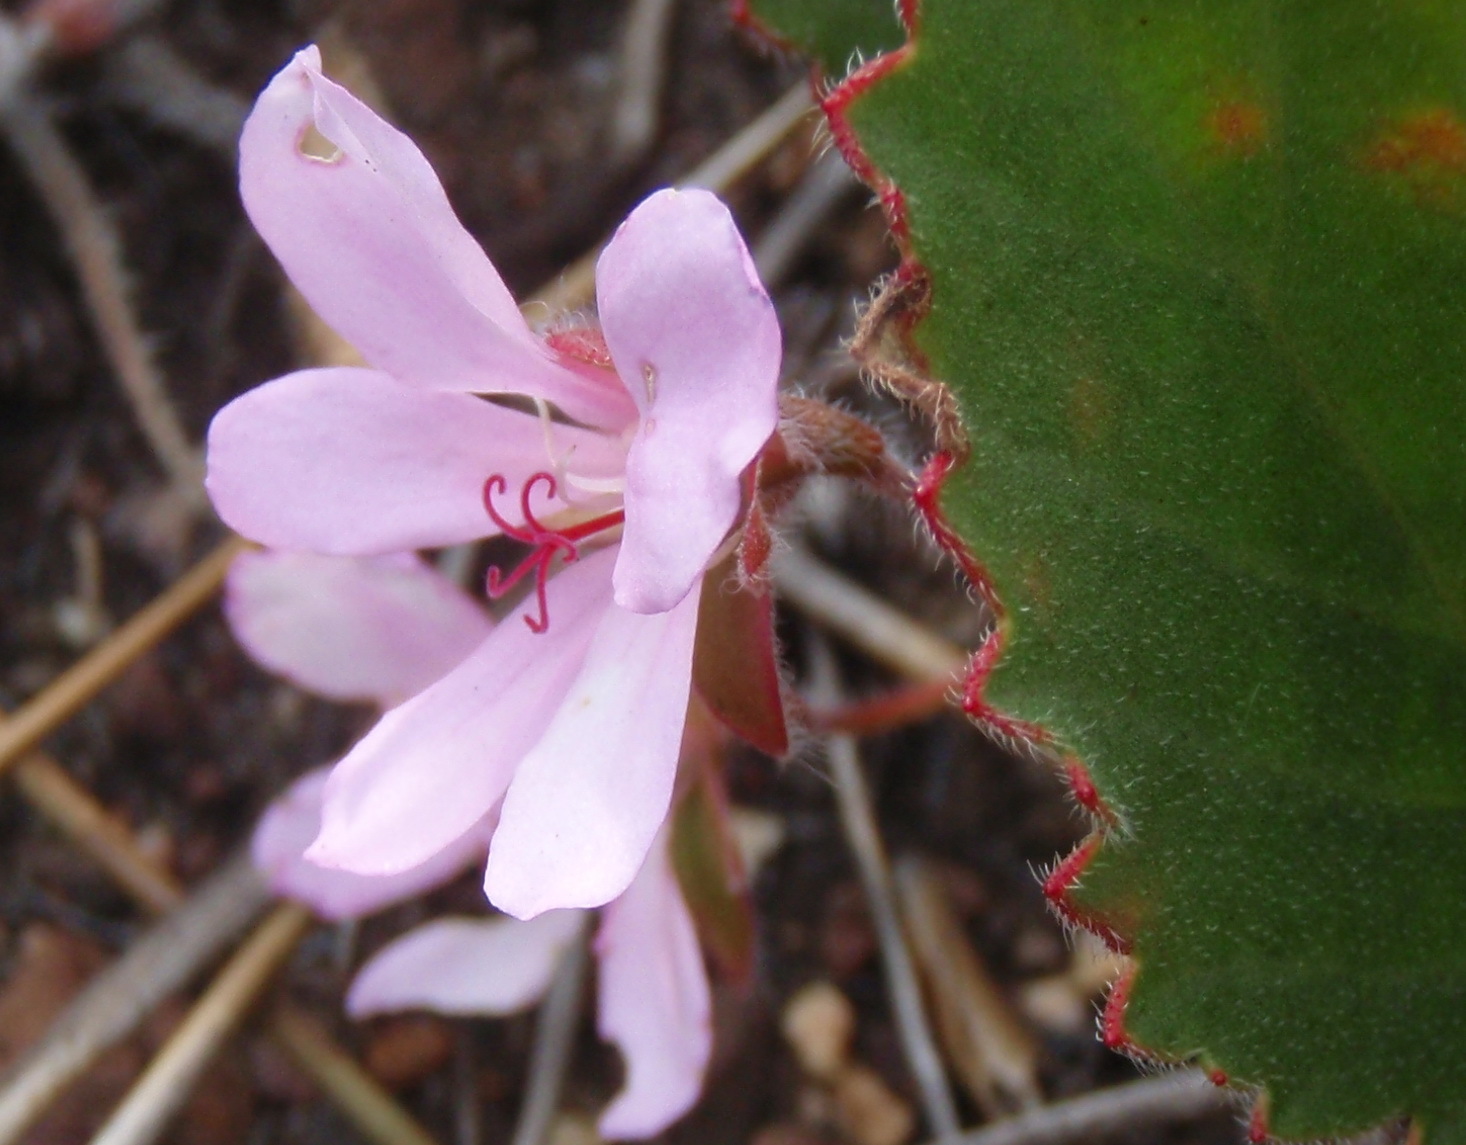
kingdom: Plantae
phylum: Tracheophyta
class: Magnoliopsida
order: Geraniales
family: Geraniaceae
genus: Pelargonium
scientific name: Pelargonium ovale
